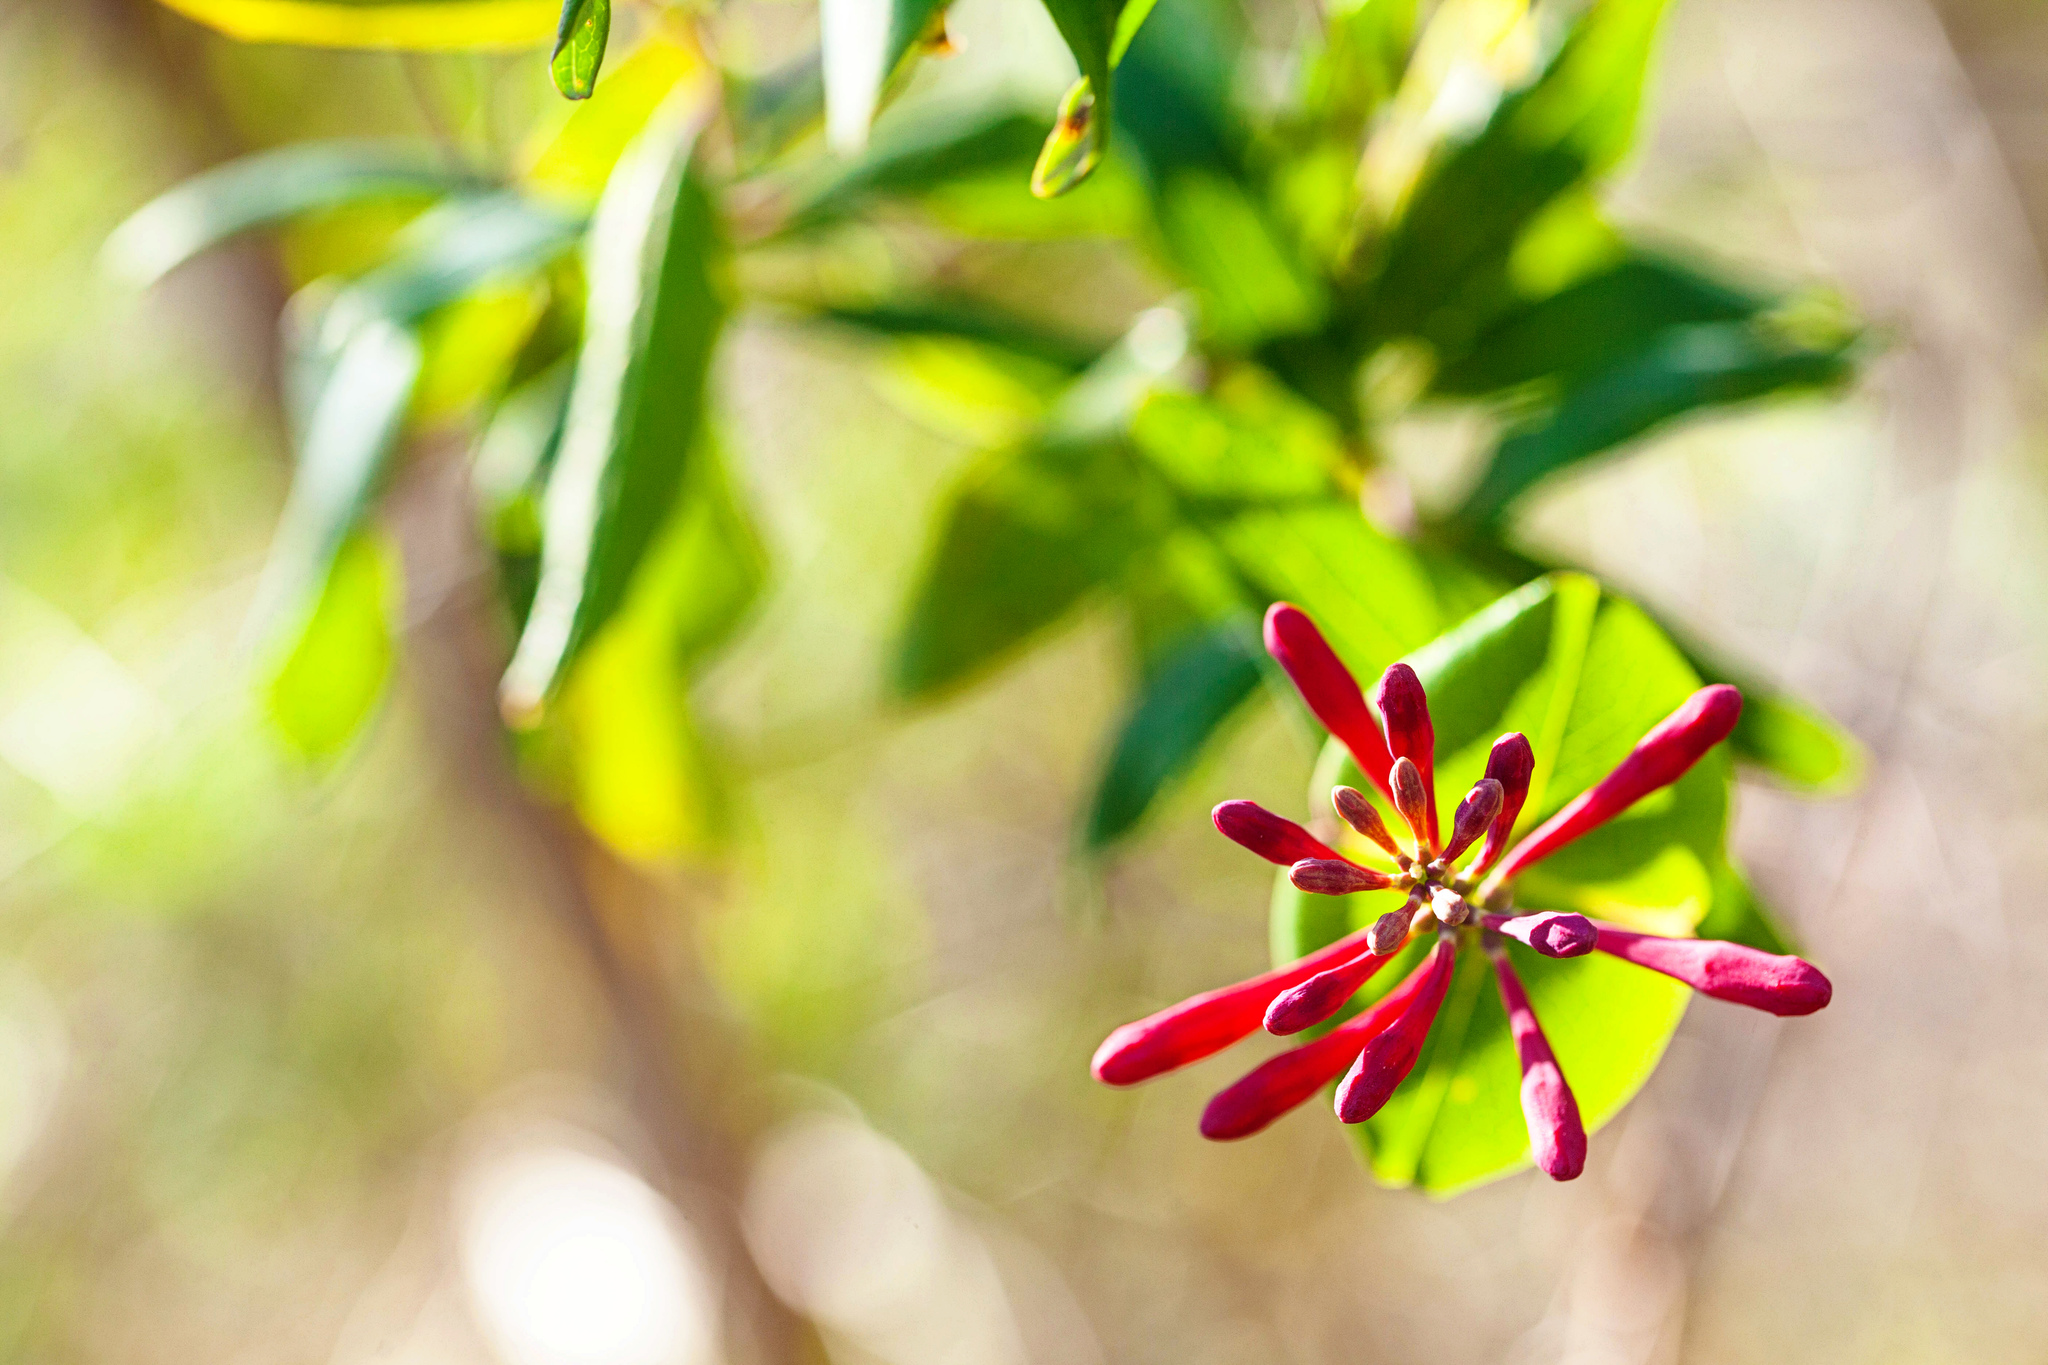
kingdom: Plantae
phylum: Tracheophyta
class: Magnoliopsida
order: Dipsacales
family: Caprifoliaceae
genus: Lonicera
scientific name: Lonicera sempervirens
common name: Coral honeysuckle
